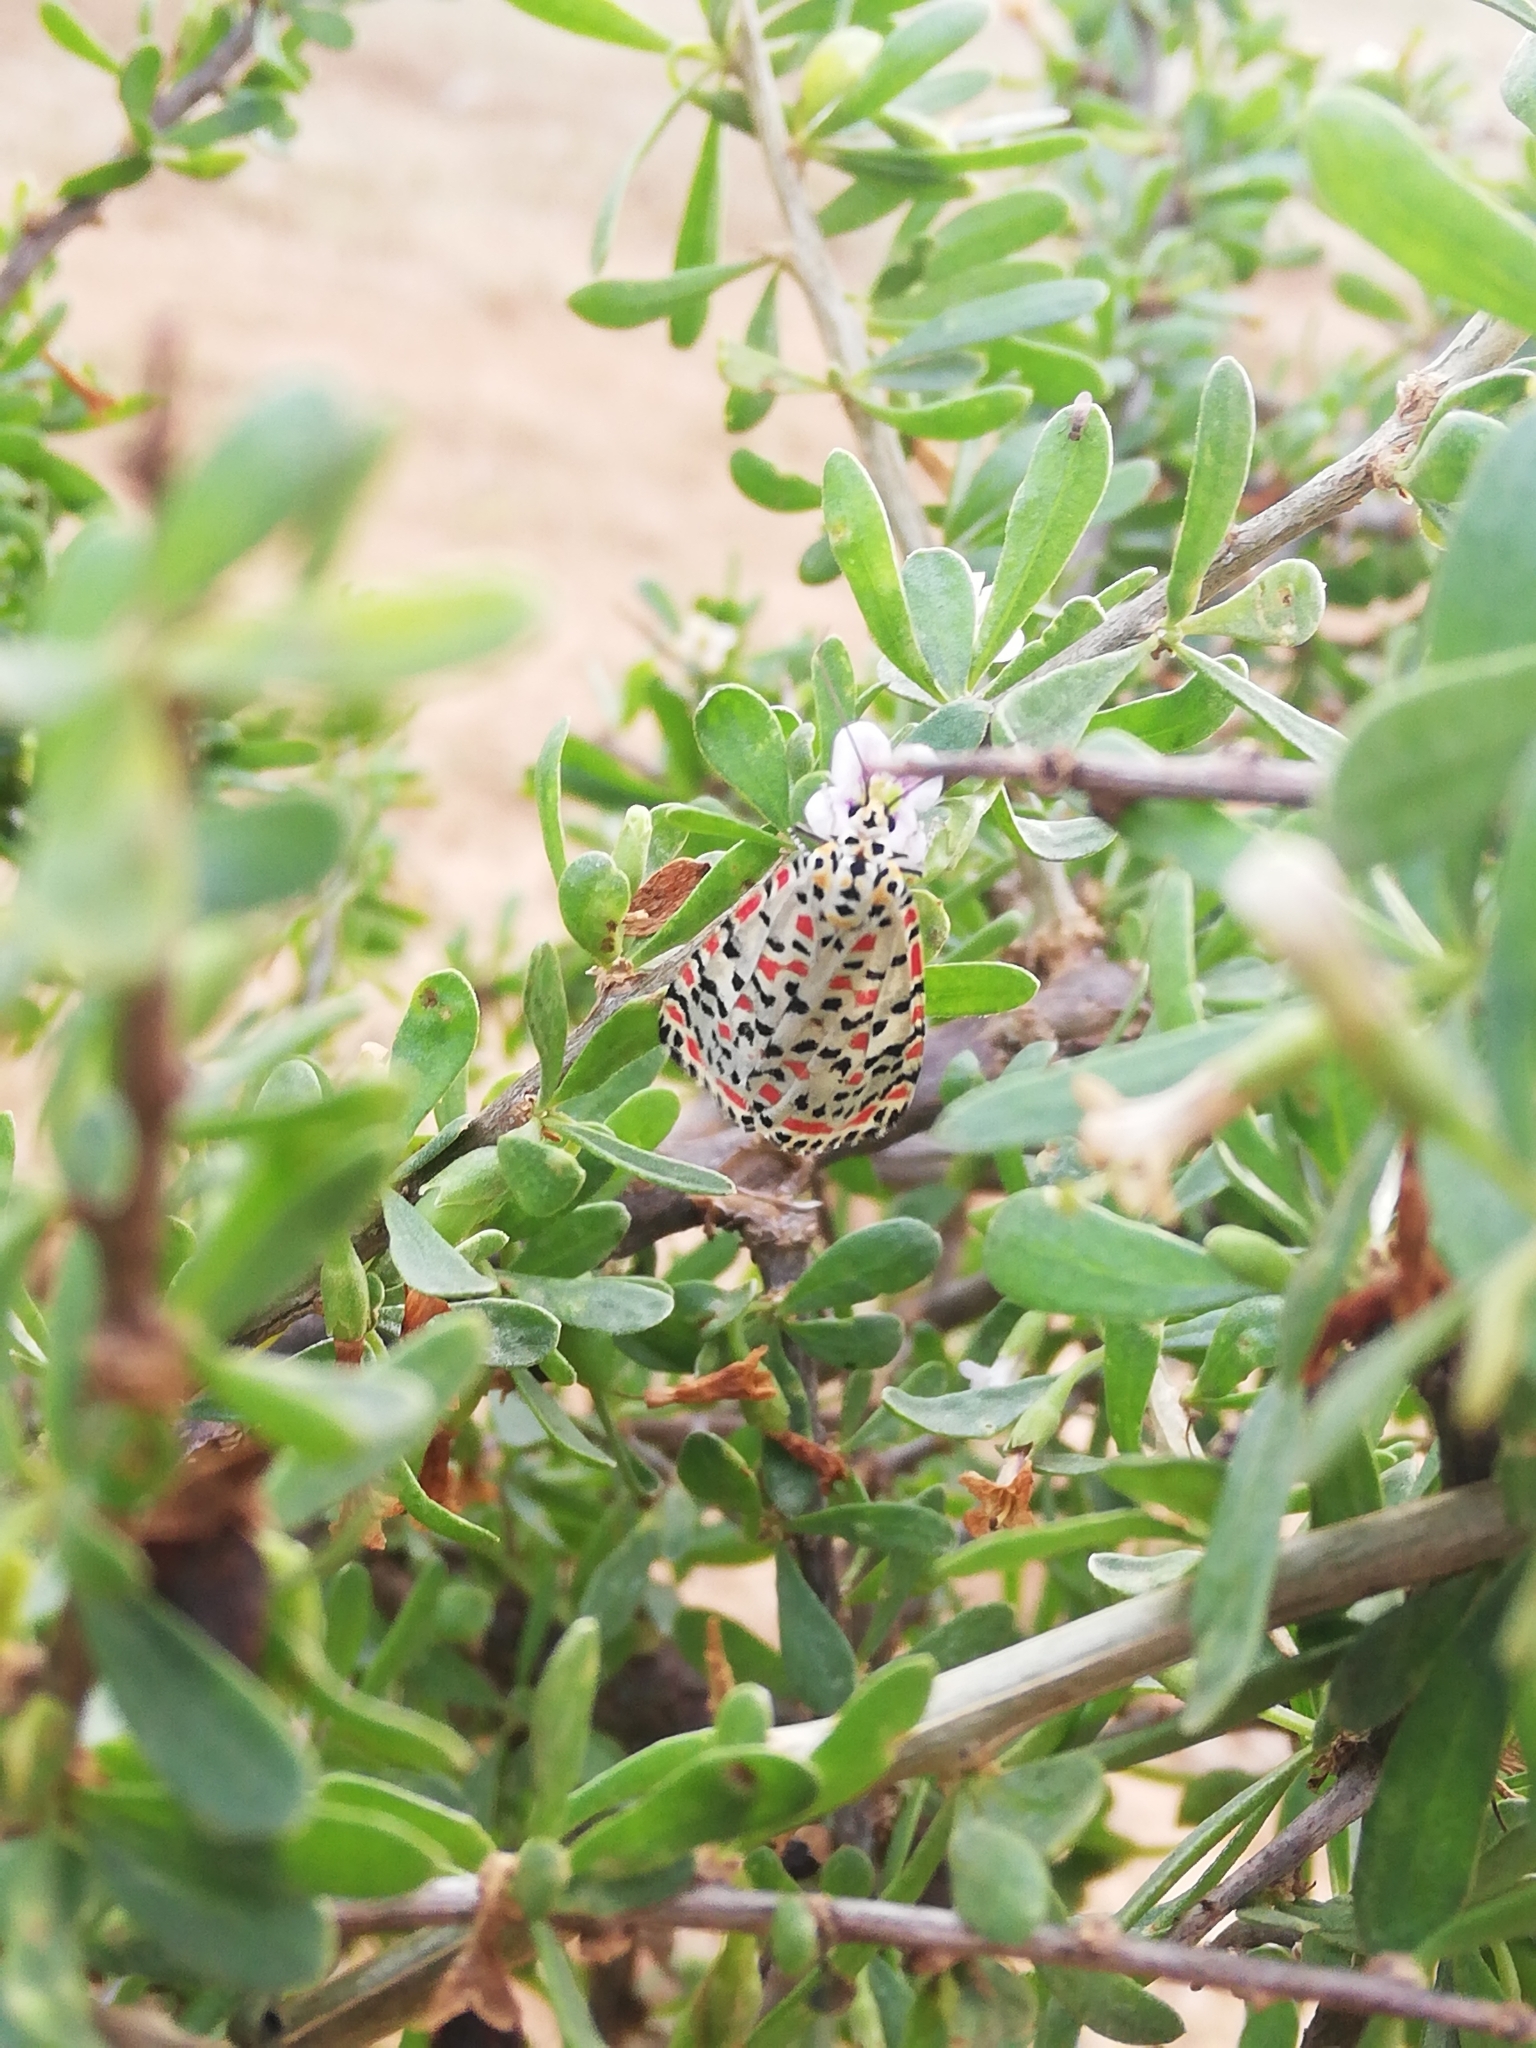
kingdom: Animalia
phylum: Arthropoda
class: Insecta
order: Lepidoptera
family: Erebidae
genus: Utetheisa
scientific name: Utetheisa pulchella
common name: Crimson speckled
